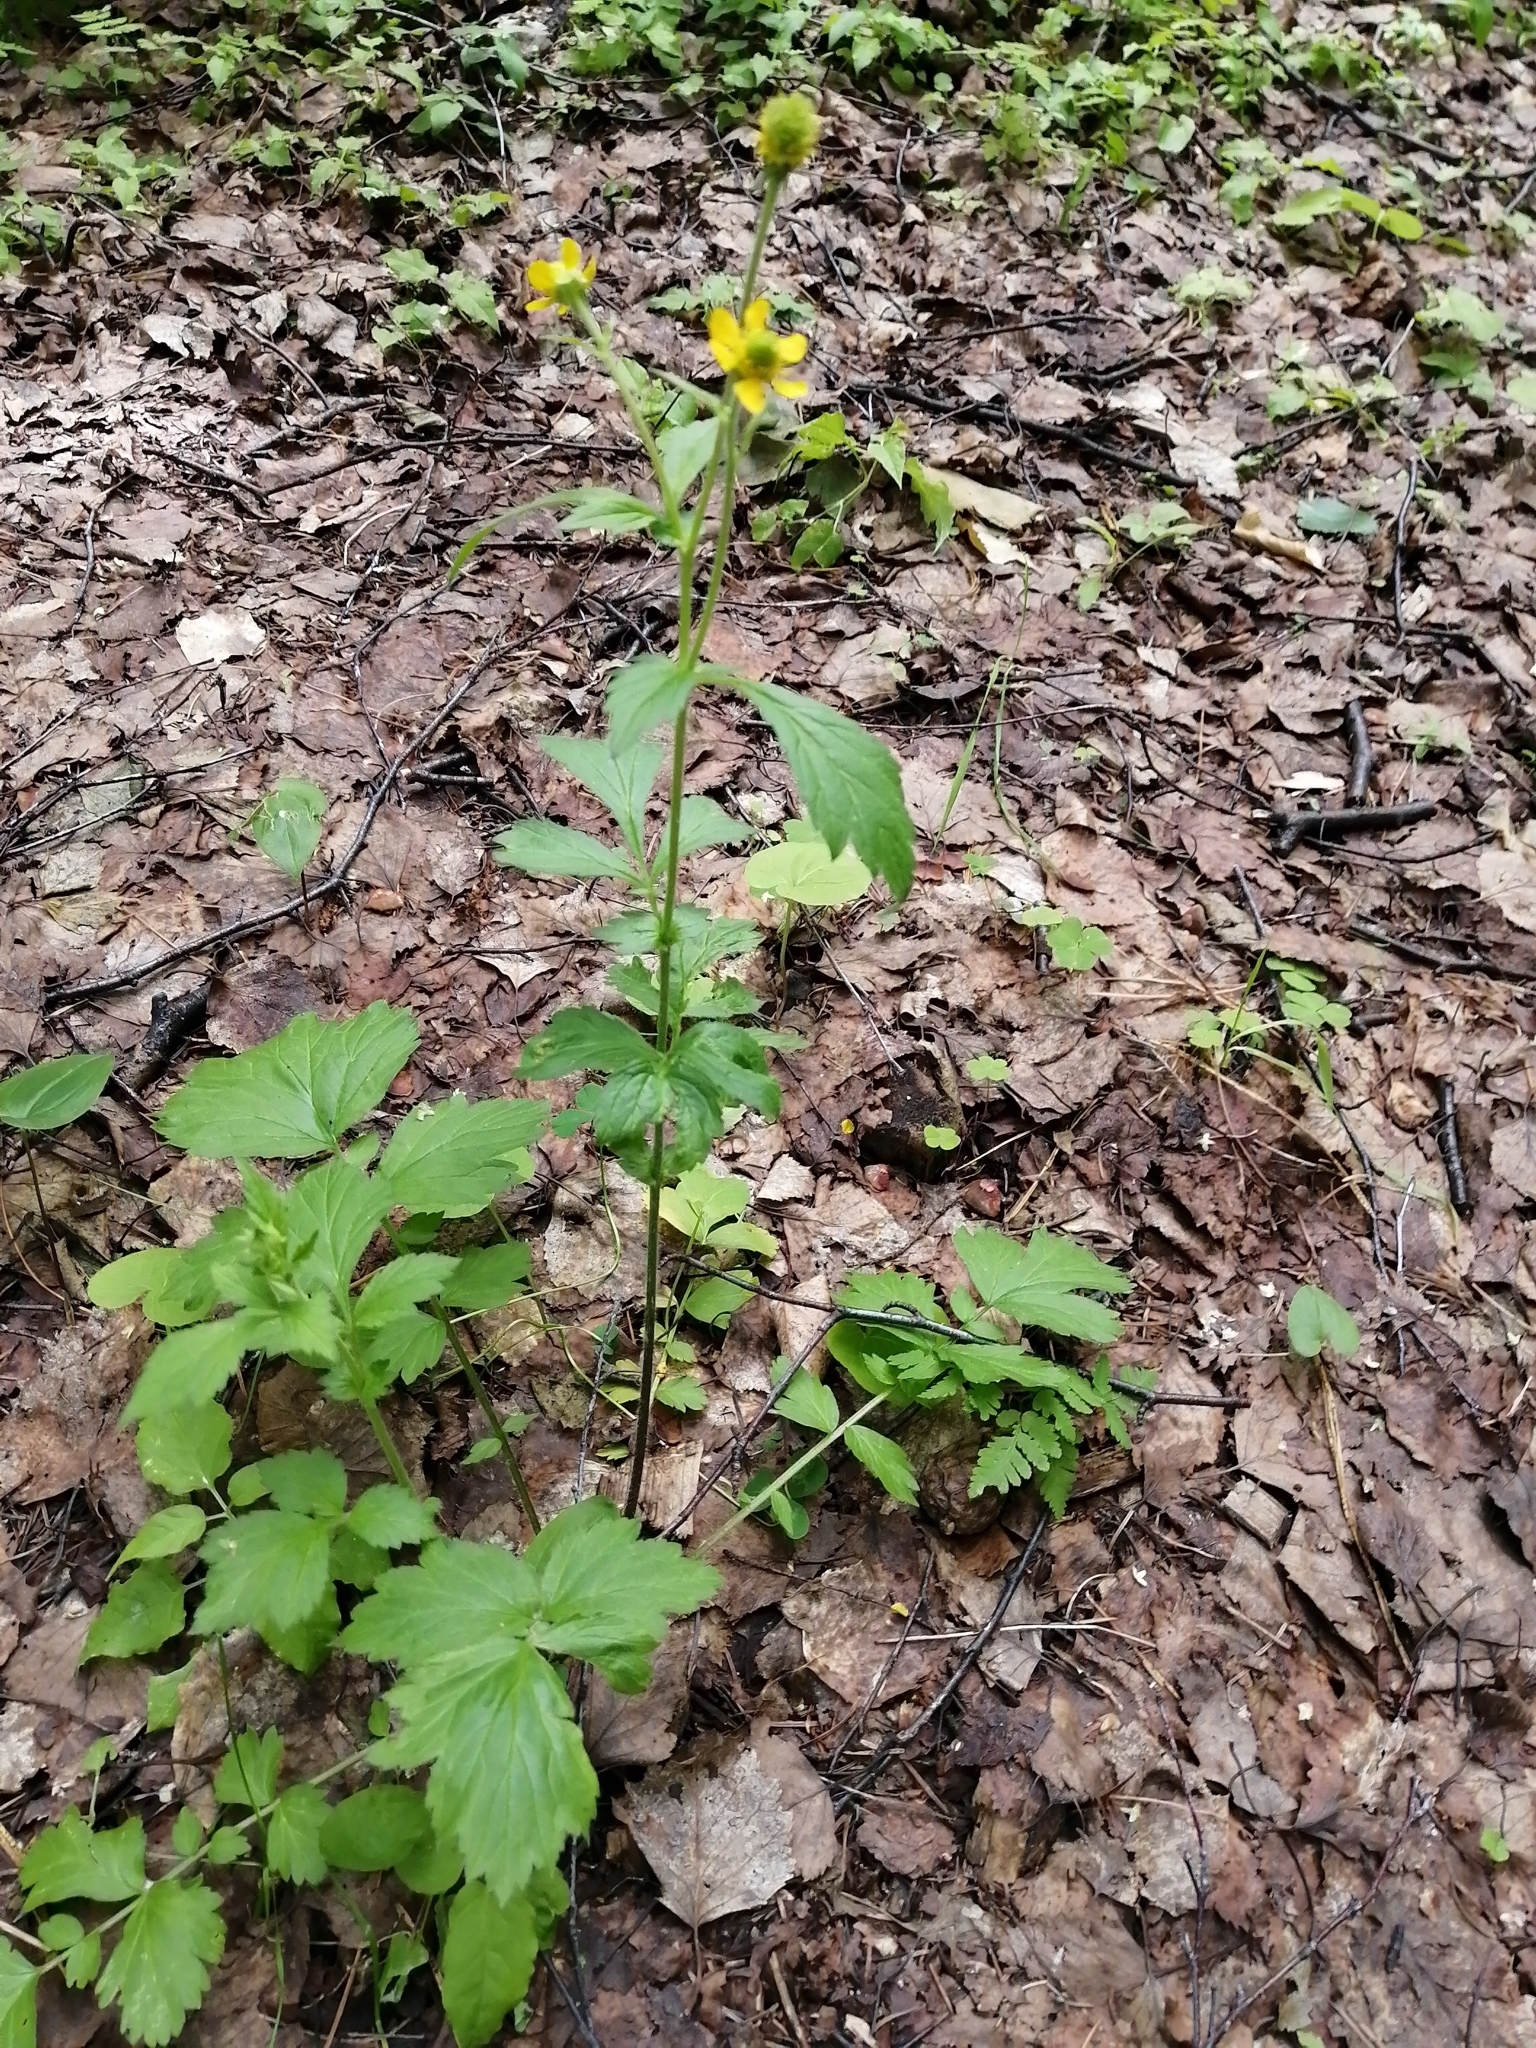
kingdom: Plantae
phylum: Tracheophyta
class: Magnoliopsida
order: Rosales
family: Rosaceae
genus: Geum
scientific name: Geum aleppicum
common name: Yellow avens
